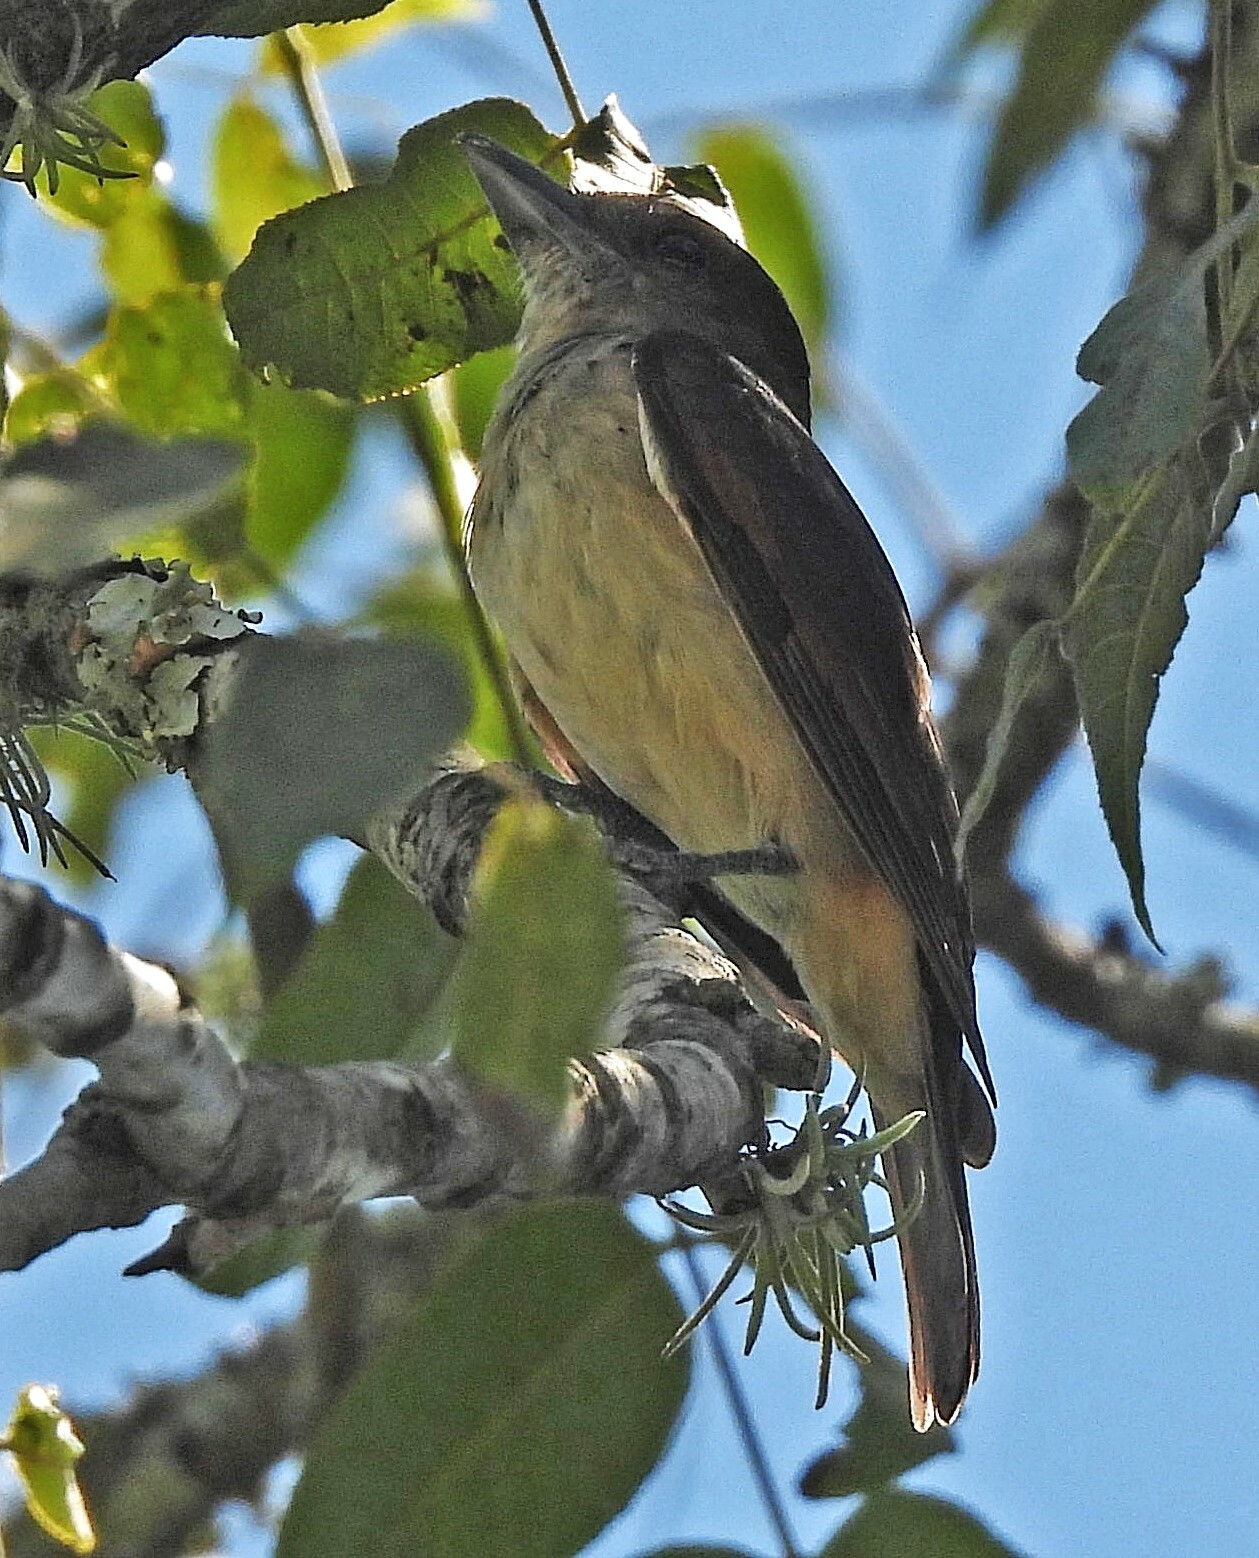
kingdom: Animalia
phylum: Chordata
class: Aves
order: Passeriformes
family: Cotingidae
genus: Pachyramphus
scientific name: Pachyramphus validus
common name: Crested becard
